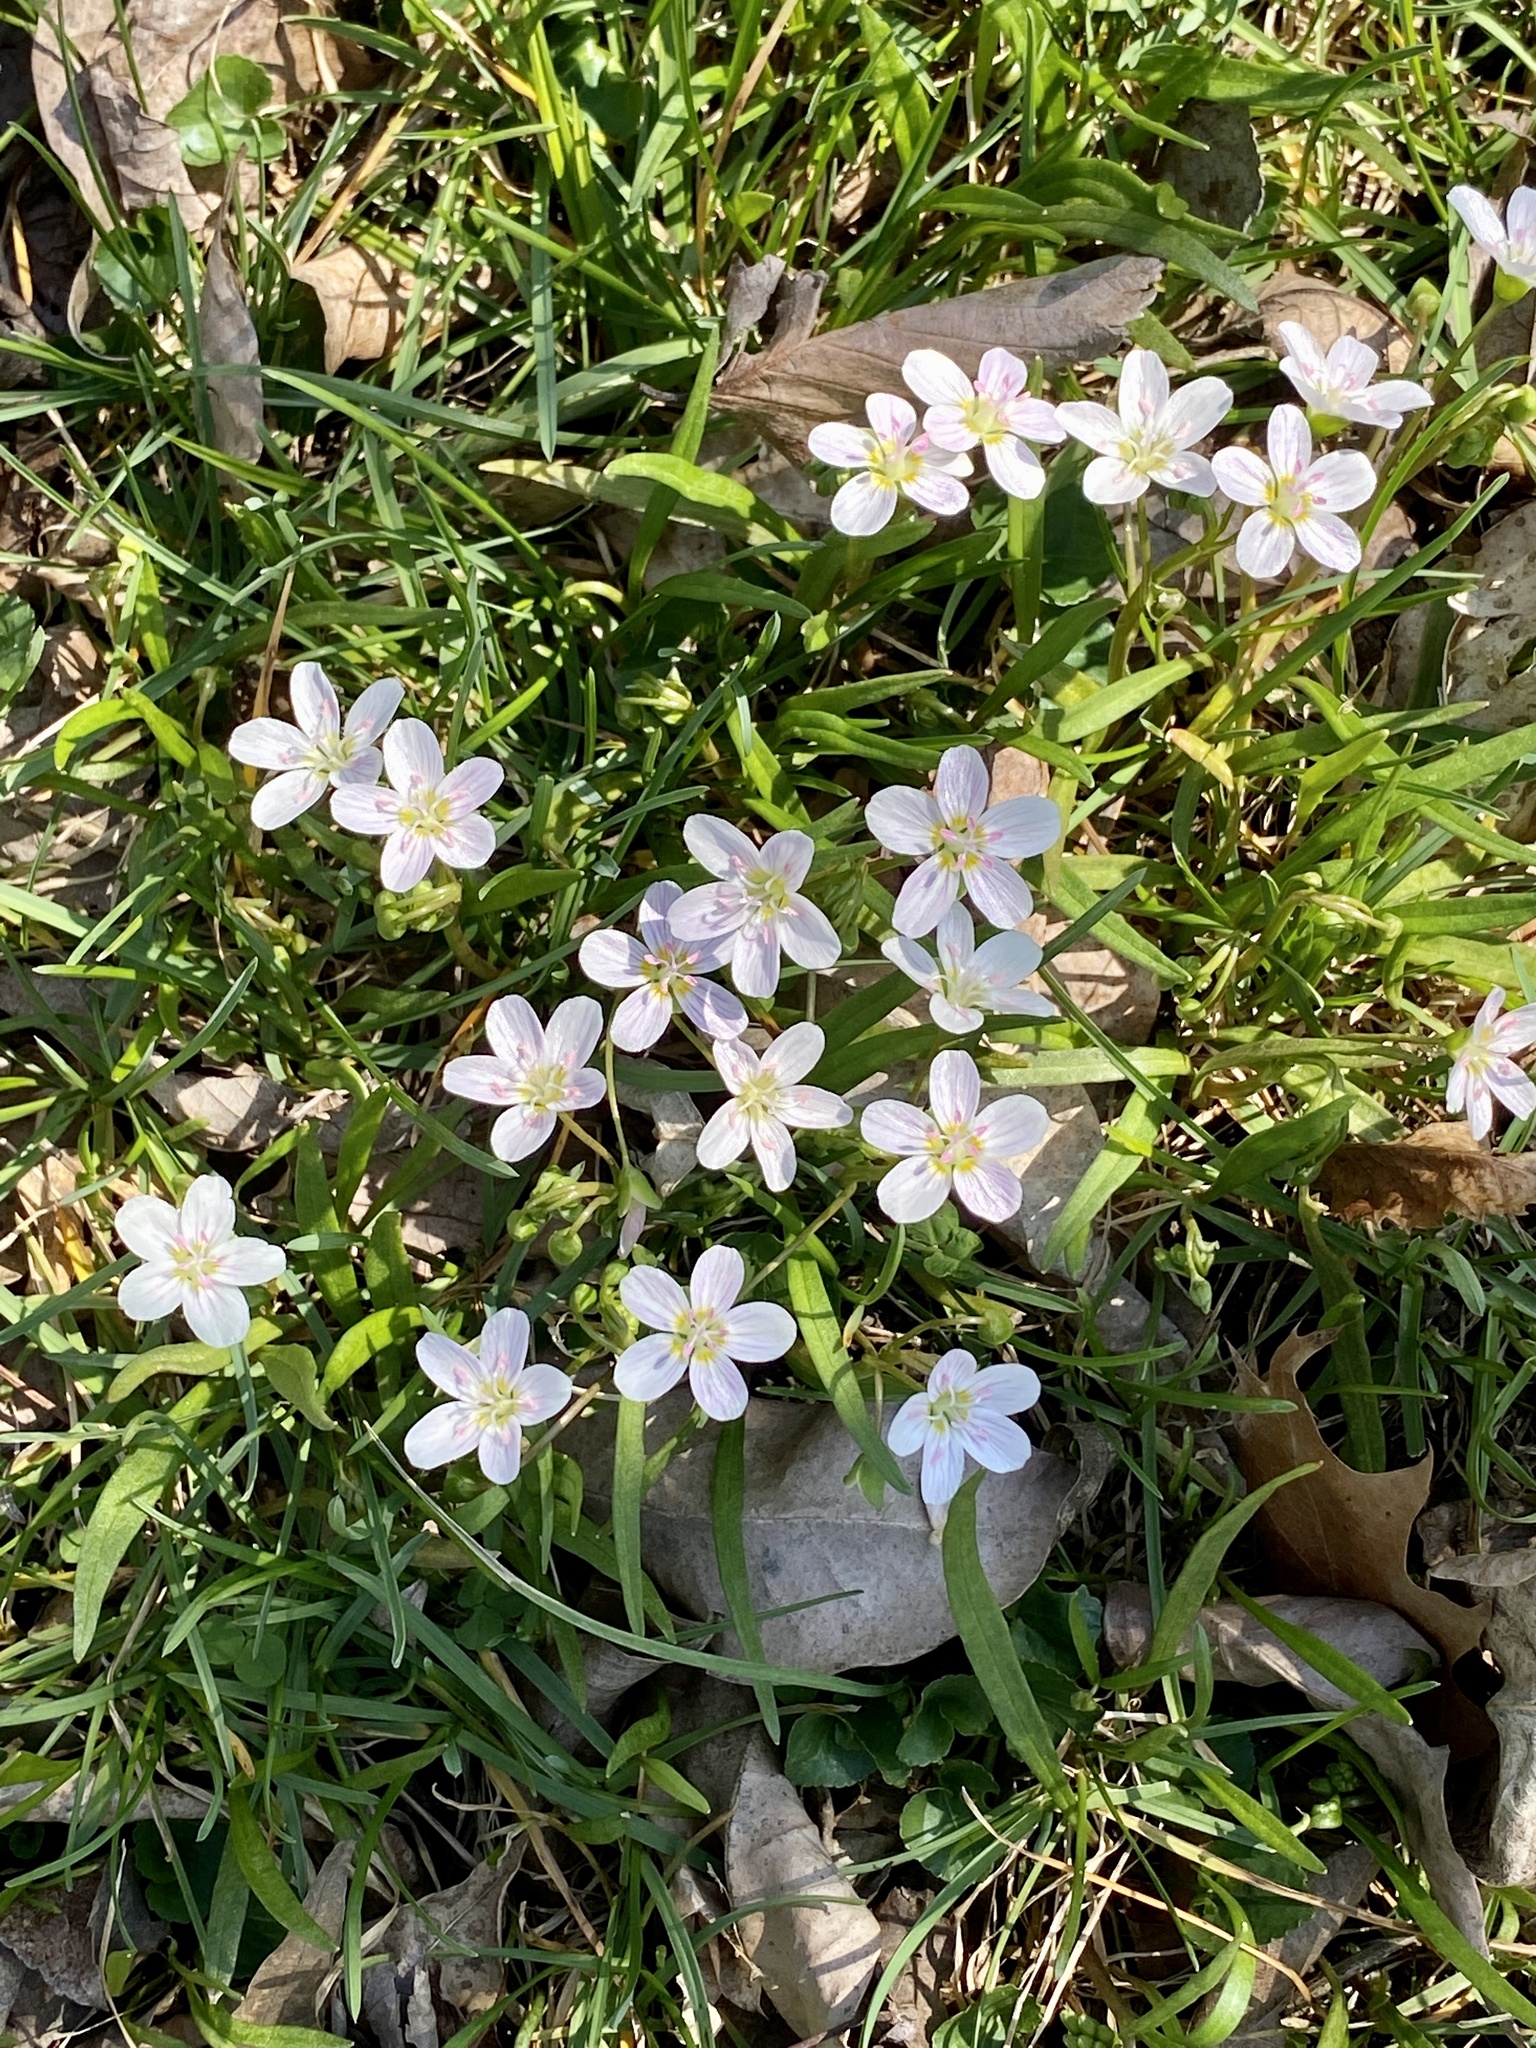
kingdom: Plantae
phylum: Tracheophyta
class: Magnoliopsida
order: Caryophyllales
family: Montiaceae
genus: Claytonia
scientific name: Claytonia virginica
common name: Virginia springbeauty
